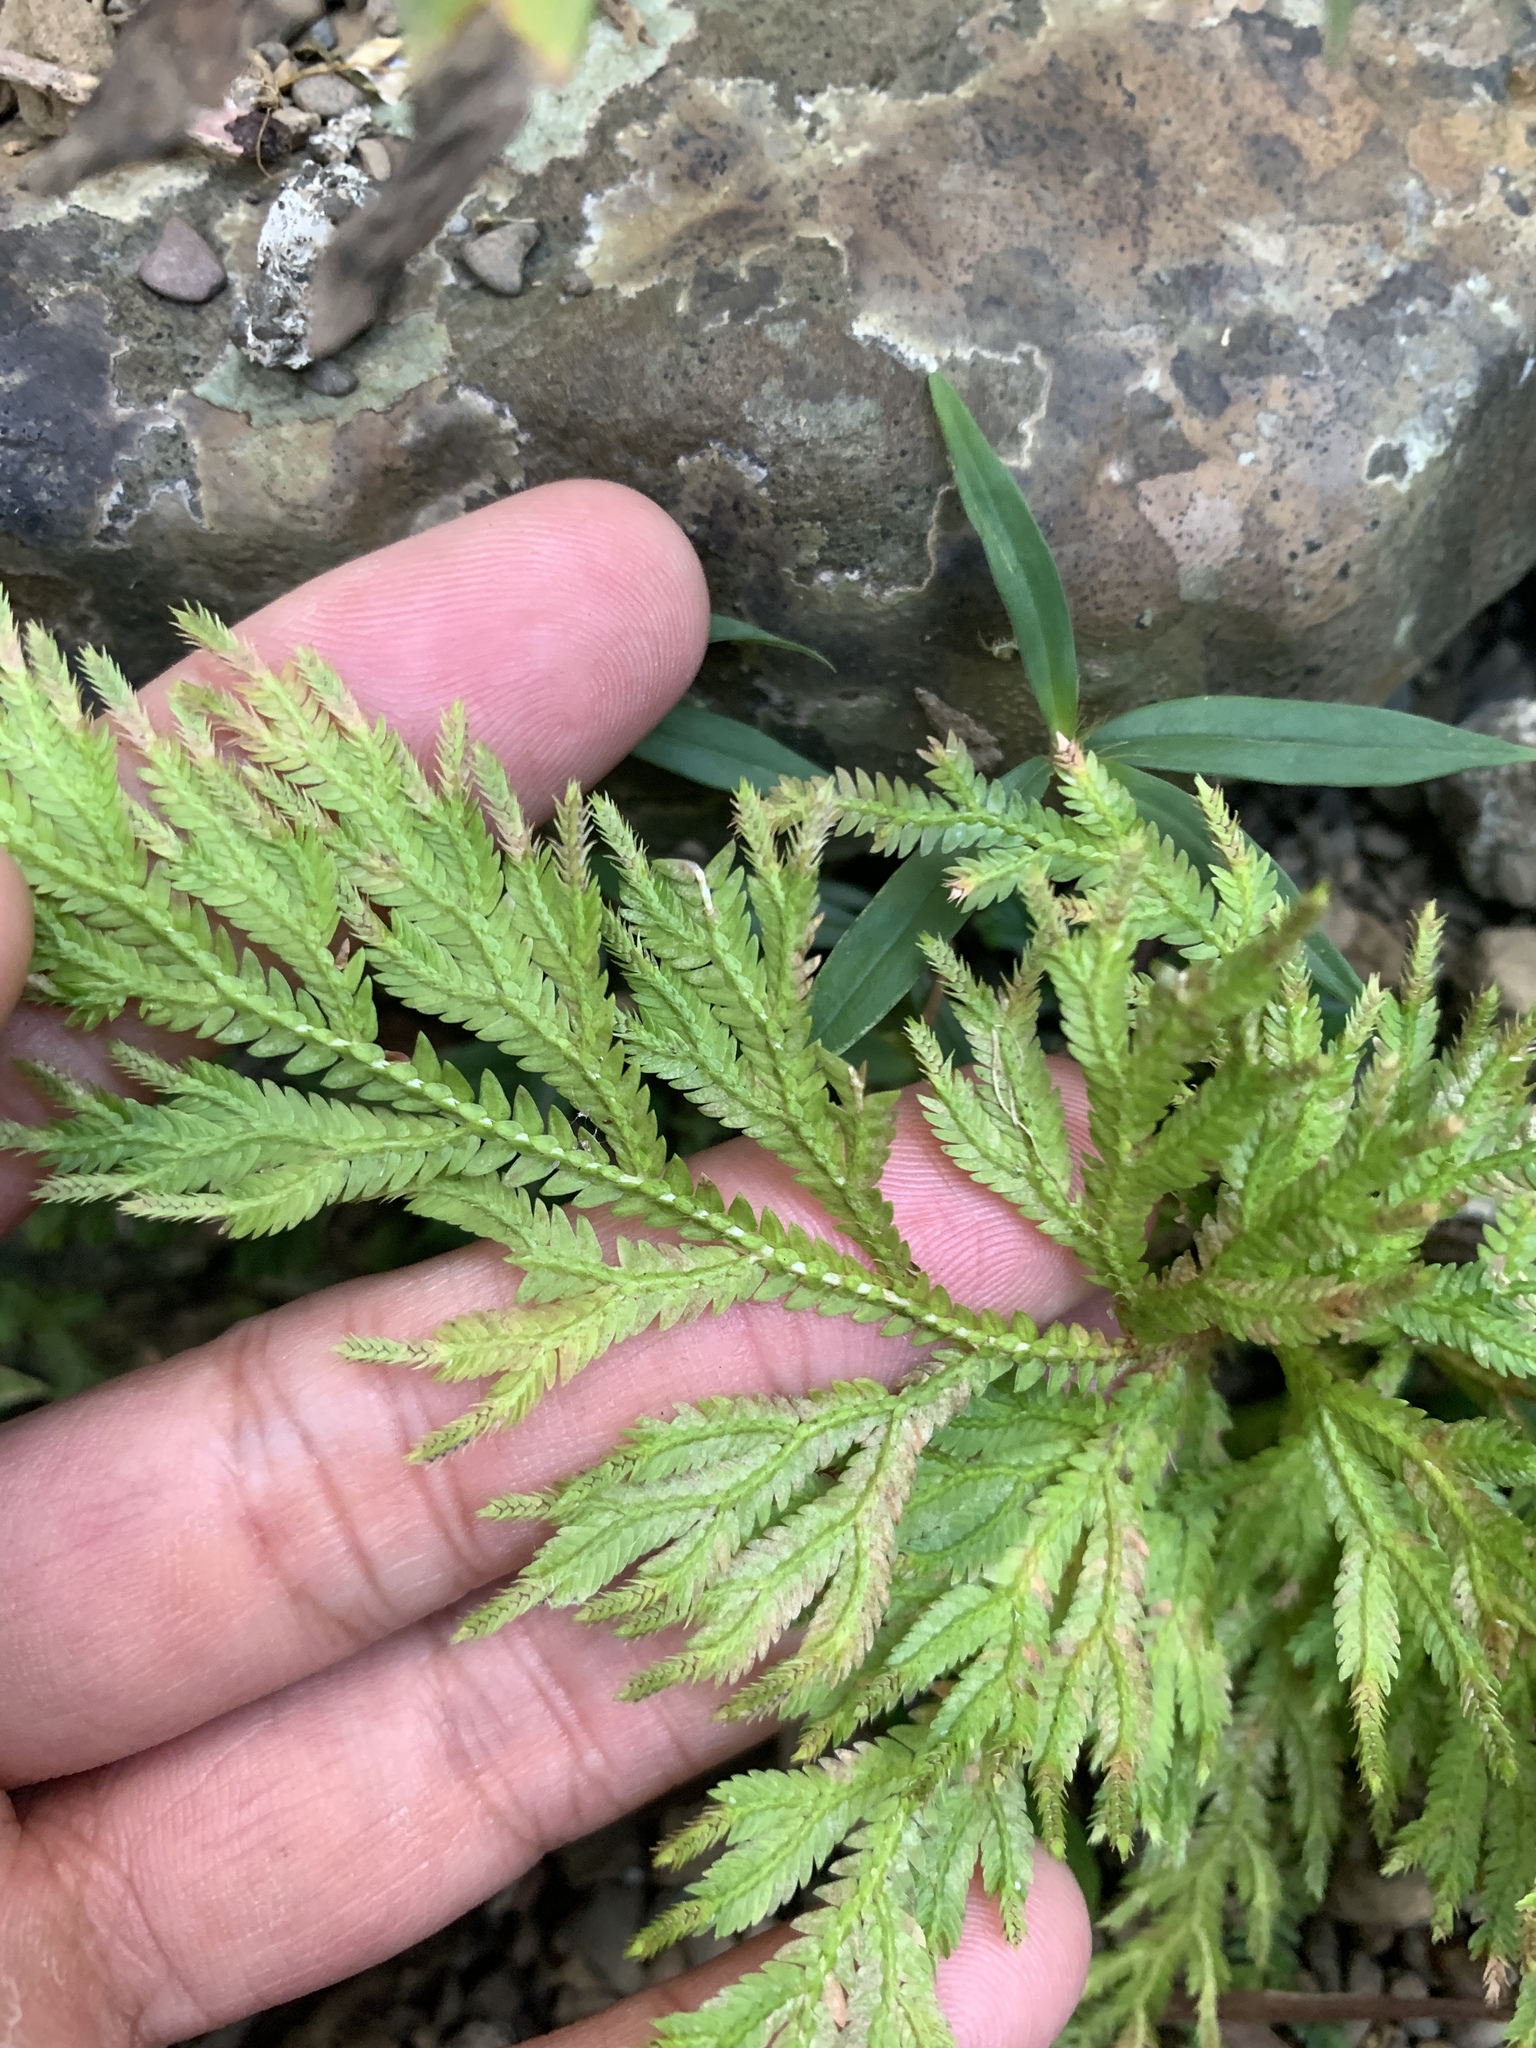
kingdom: Plantae
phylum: Tracheophyta
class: Lycopodiopsida
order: Selaginellales
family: Selaginellaceae
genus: Selaginella
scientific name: Selaginella moellendorffii
